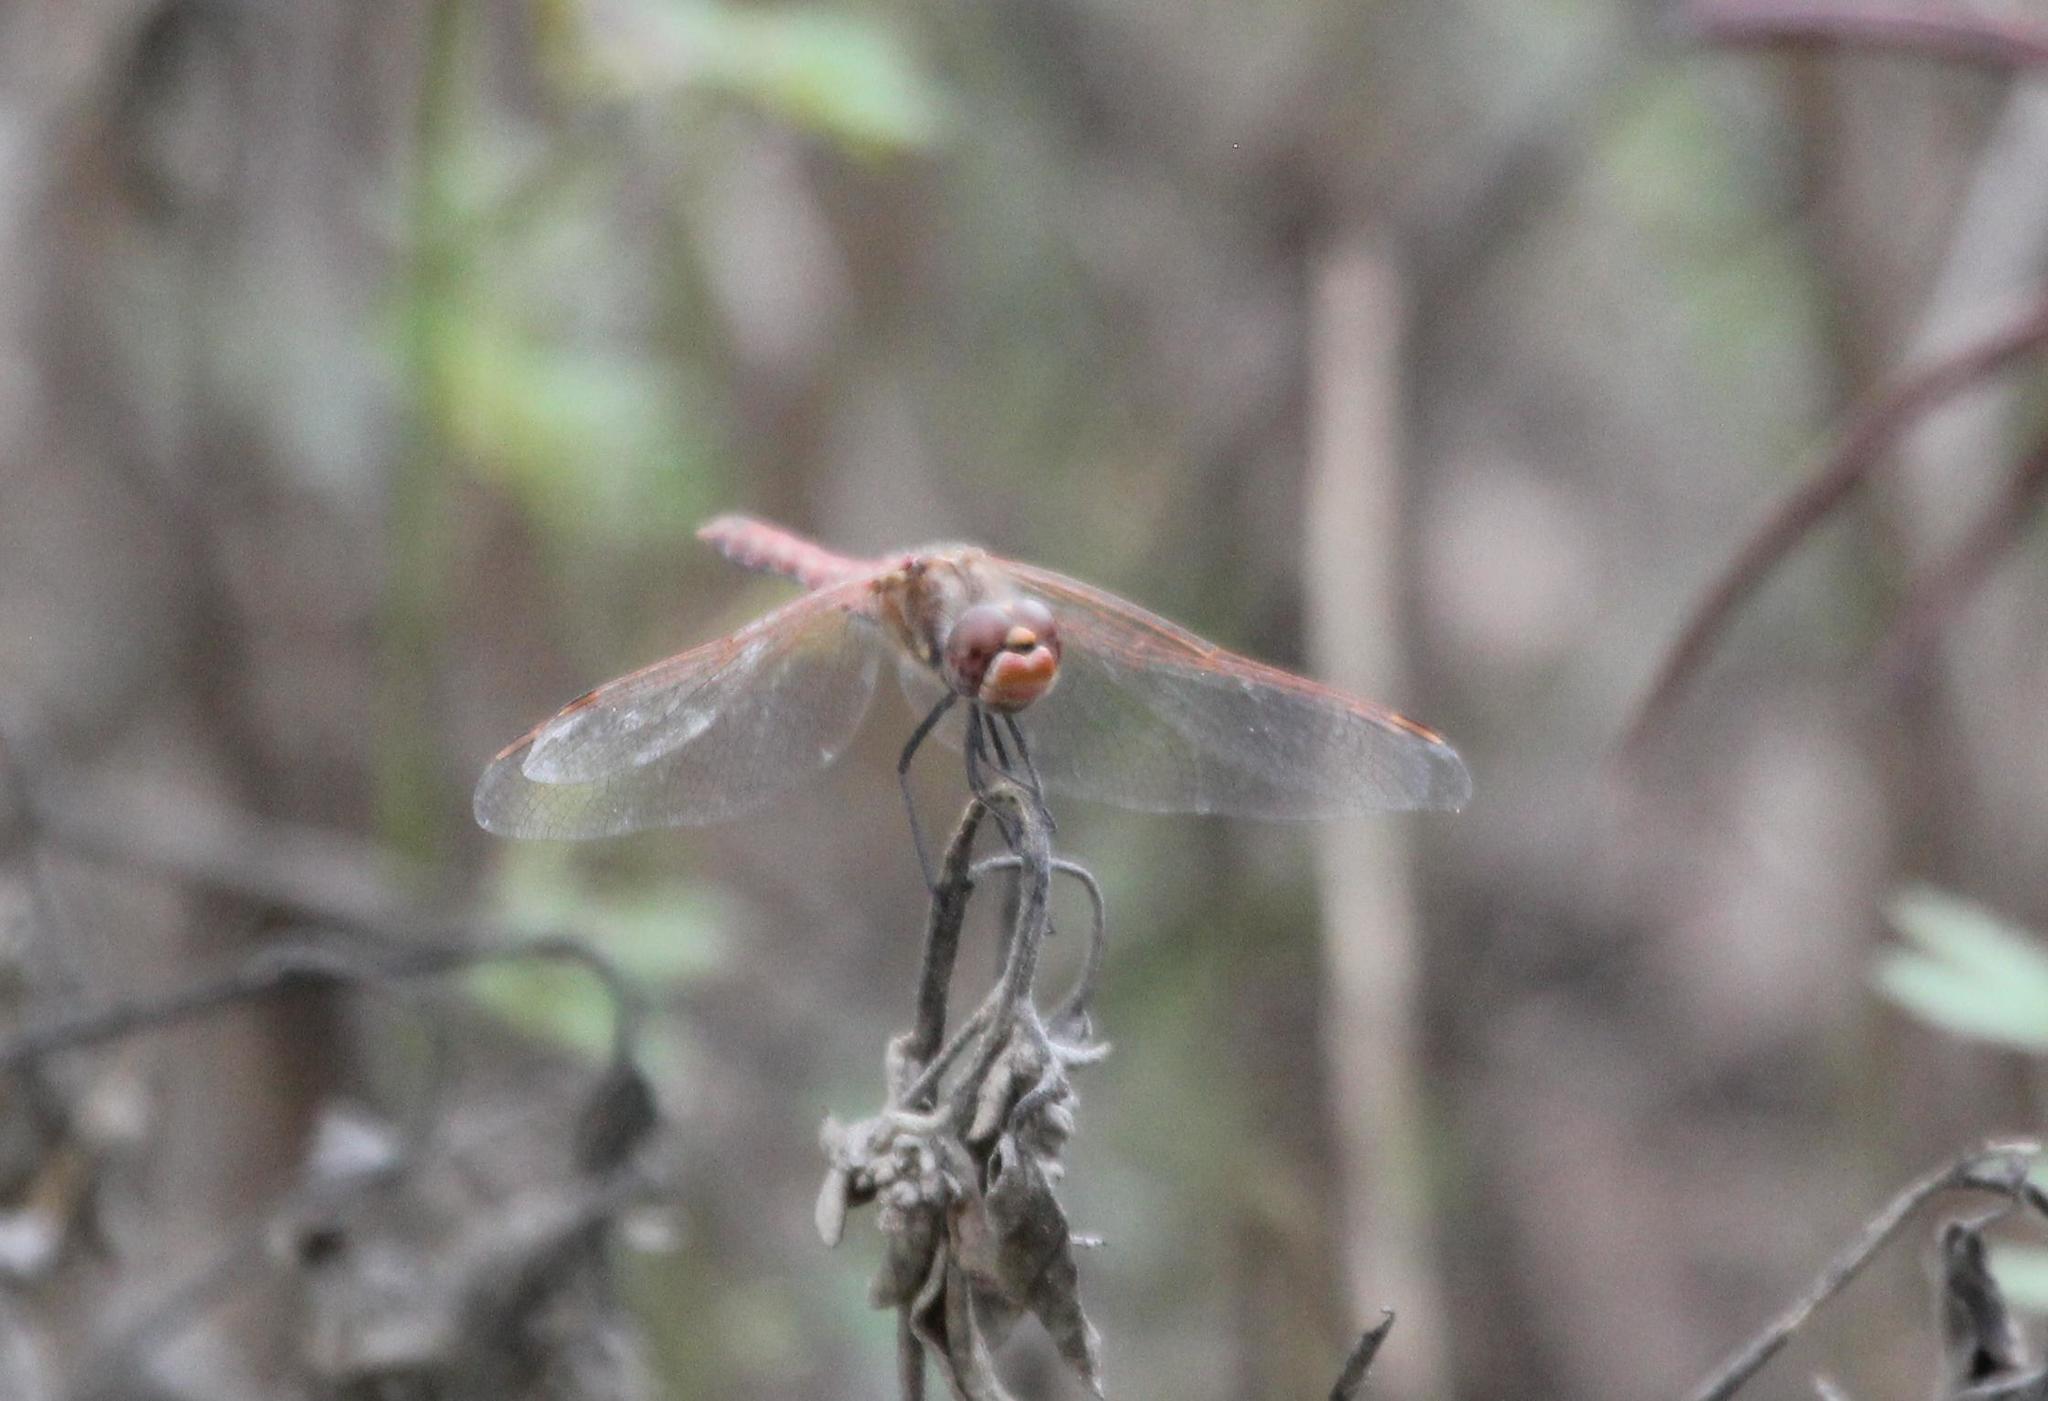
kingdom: Animalia
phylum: Arthropoda
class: Insecta
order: Odonata
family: Libellulidae
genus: Sympetrum
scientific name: Sympetrum corruptum
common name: Variegated meadowhawk
